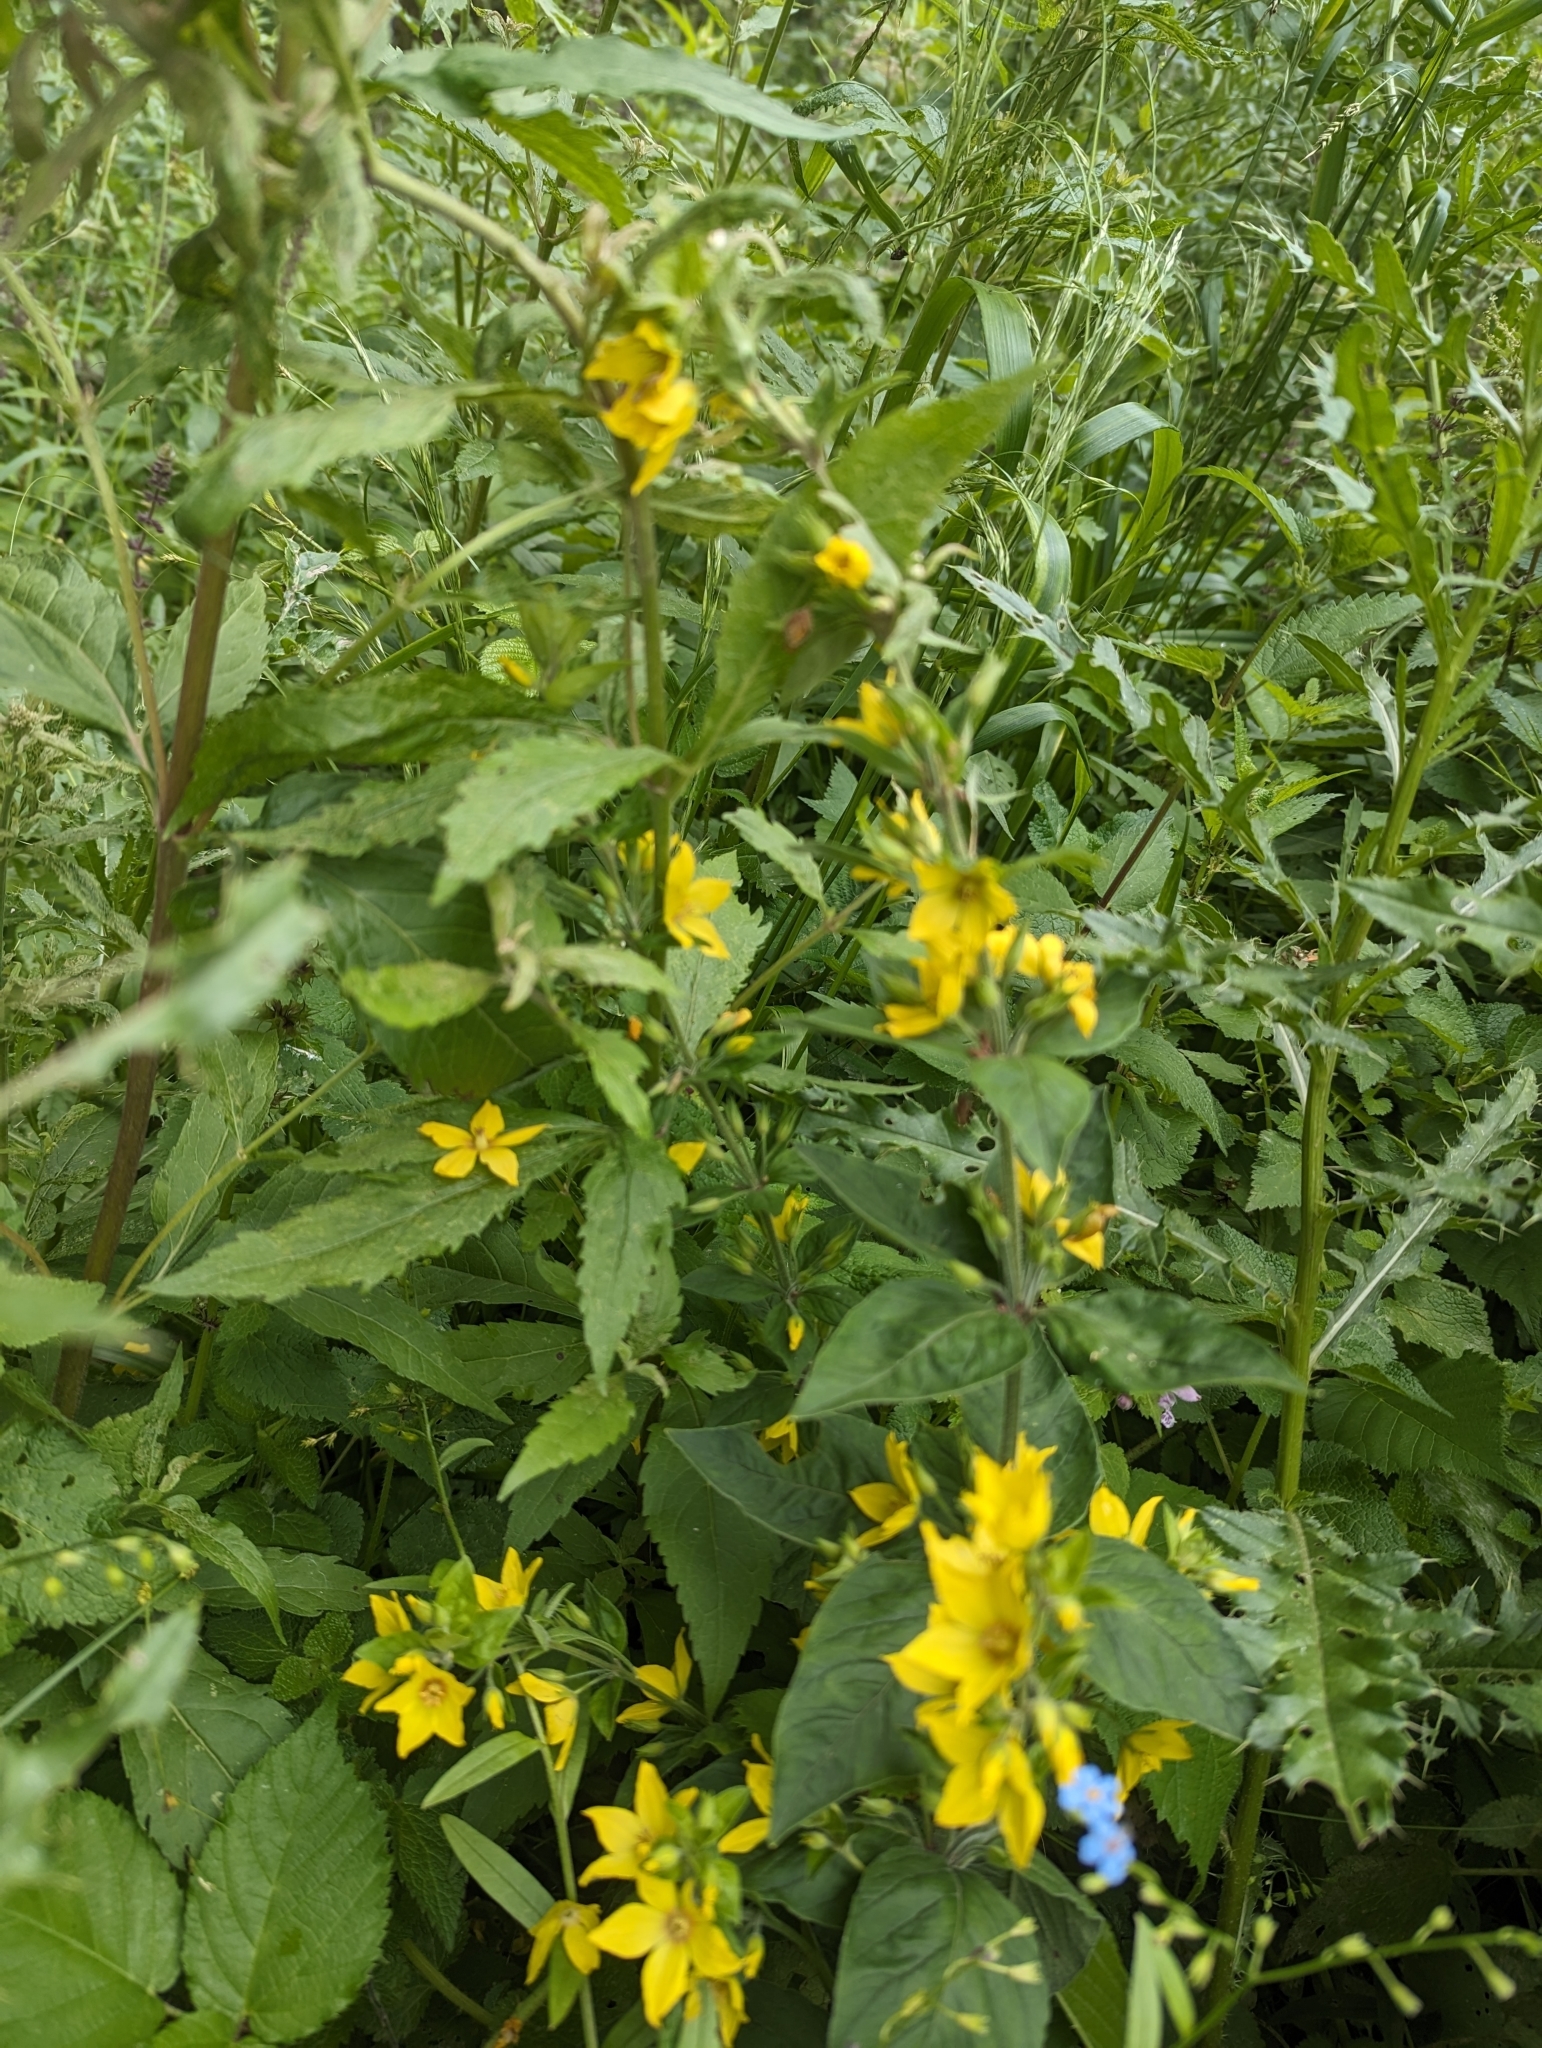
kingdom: Plantae
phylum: Tracheophyta
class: Magnoliopsida
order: Ericales
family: Primulaceae
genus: Lysimachia
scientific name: Lysimachia punctata
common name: Dotted loosestrife
